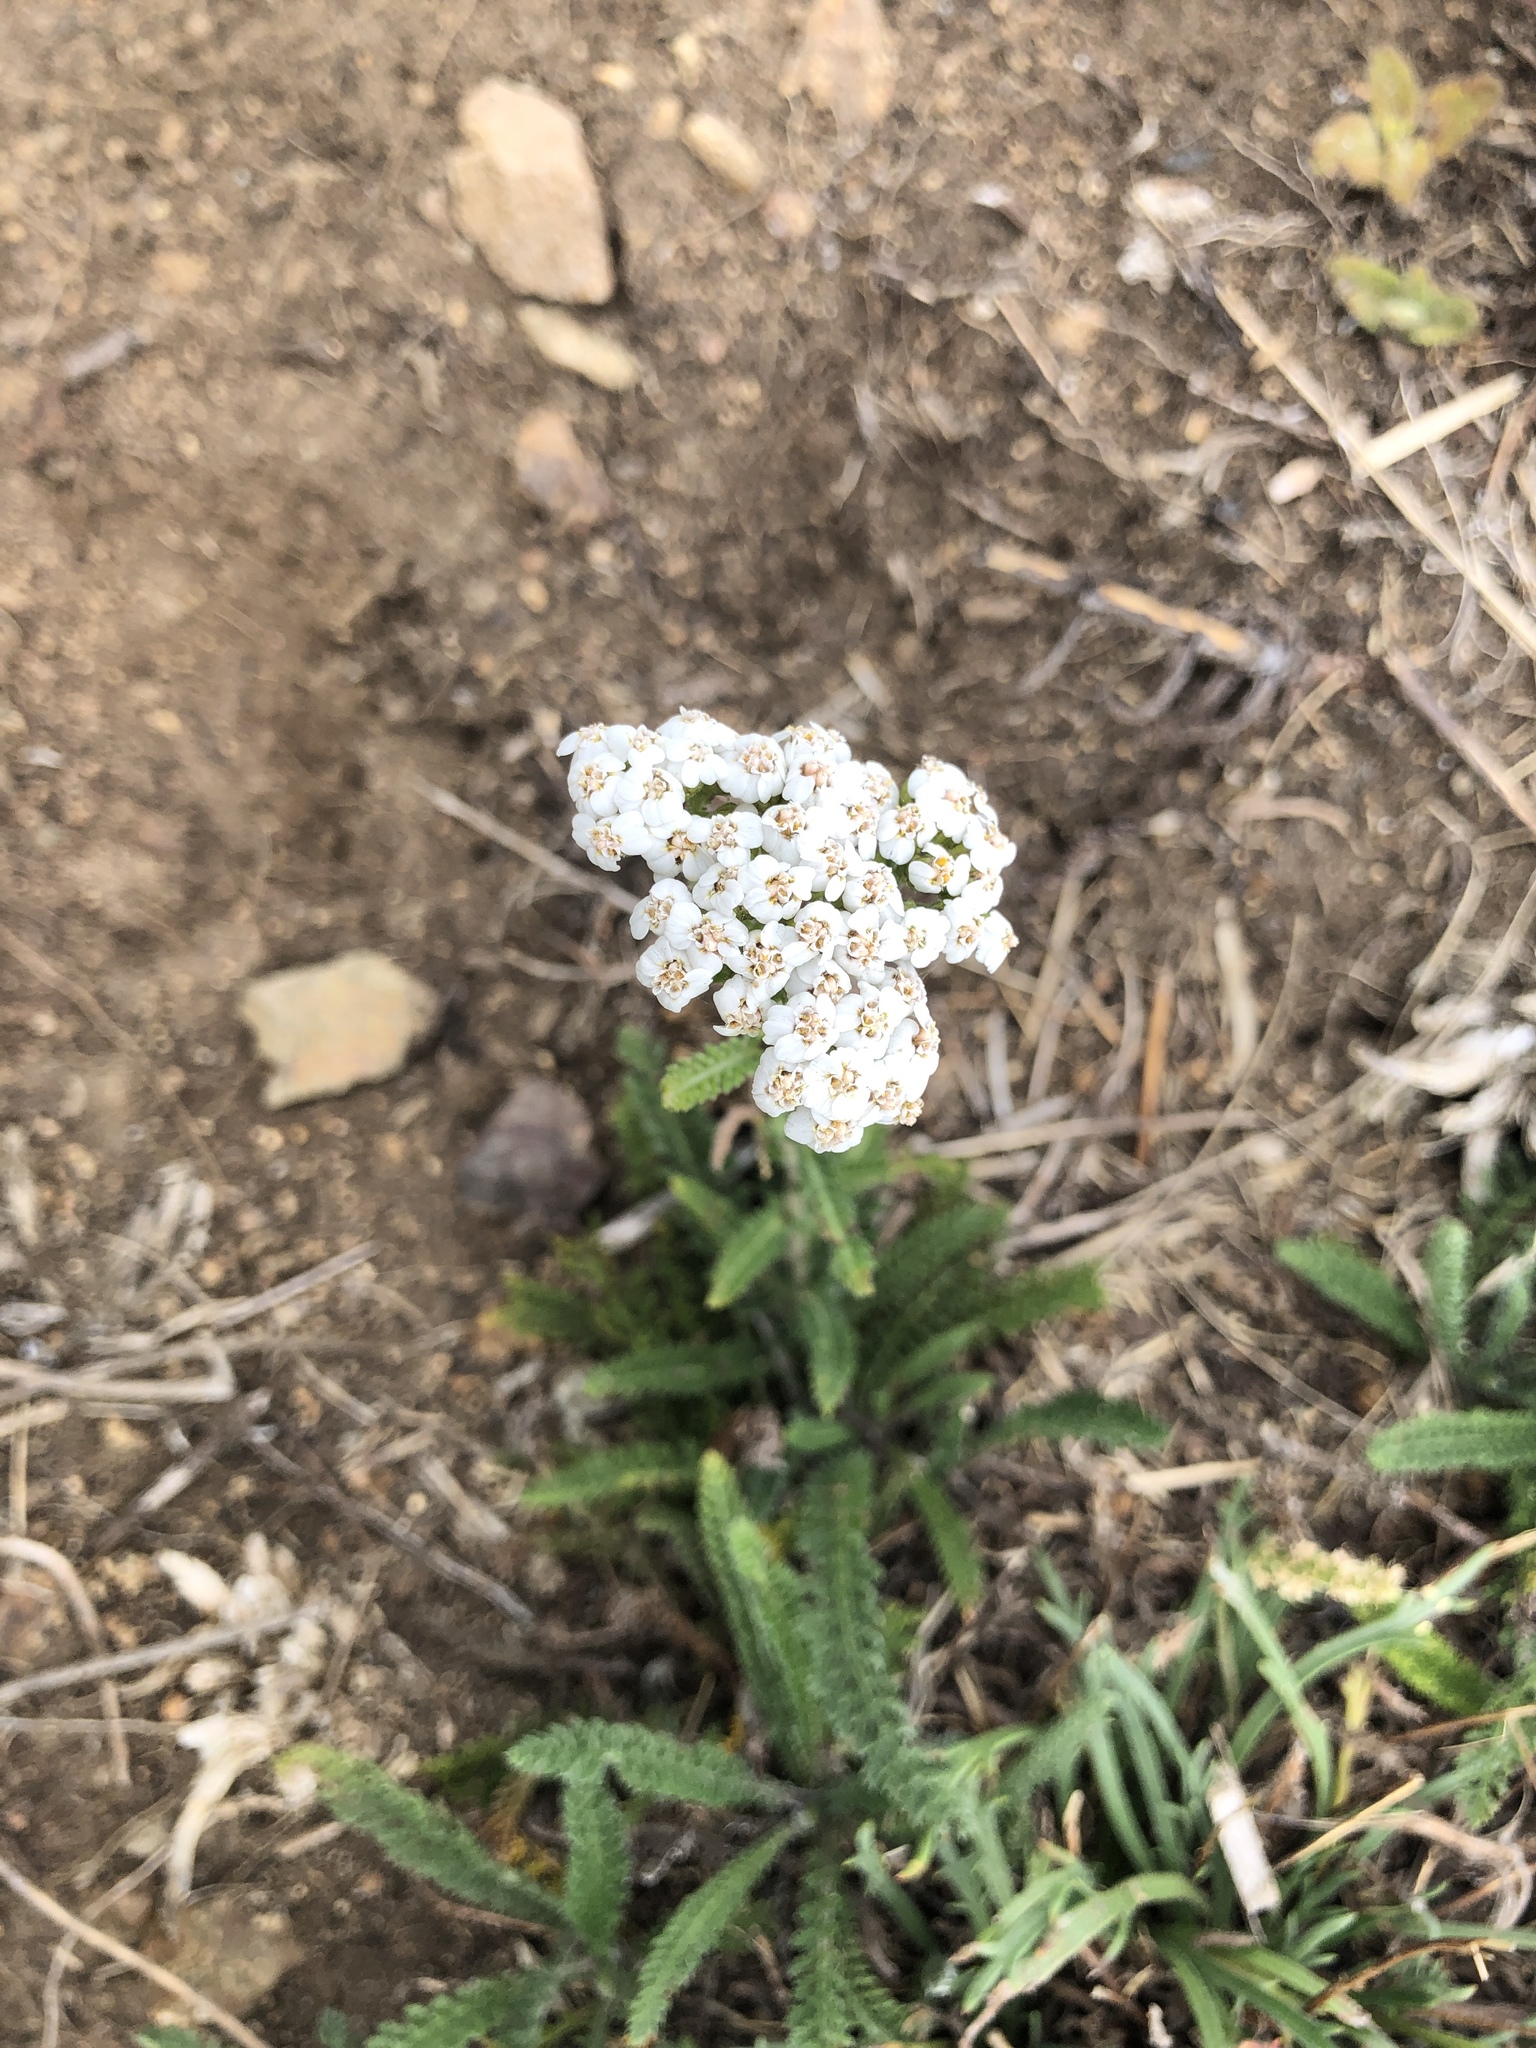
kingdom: Plantae
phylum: Tracheophyta
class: Magnoliopsida
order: Asterales
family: Asteraceae
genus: Achillea
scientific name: Achillea millefolium
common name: Yarrow
